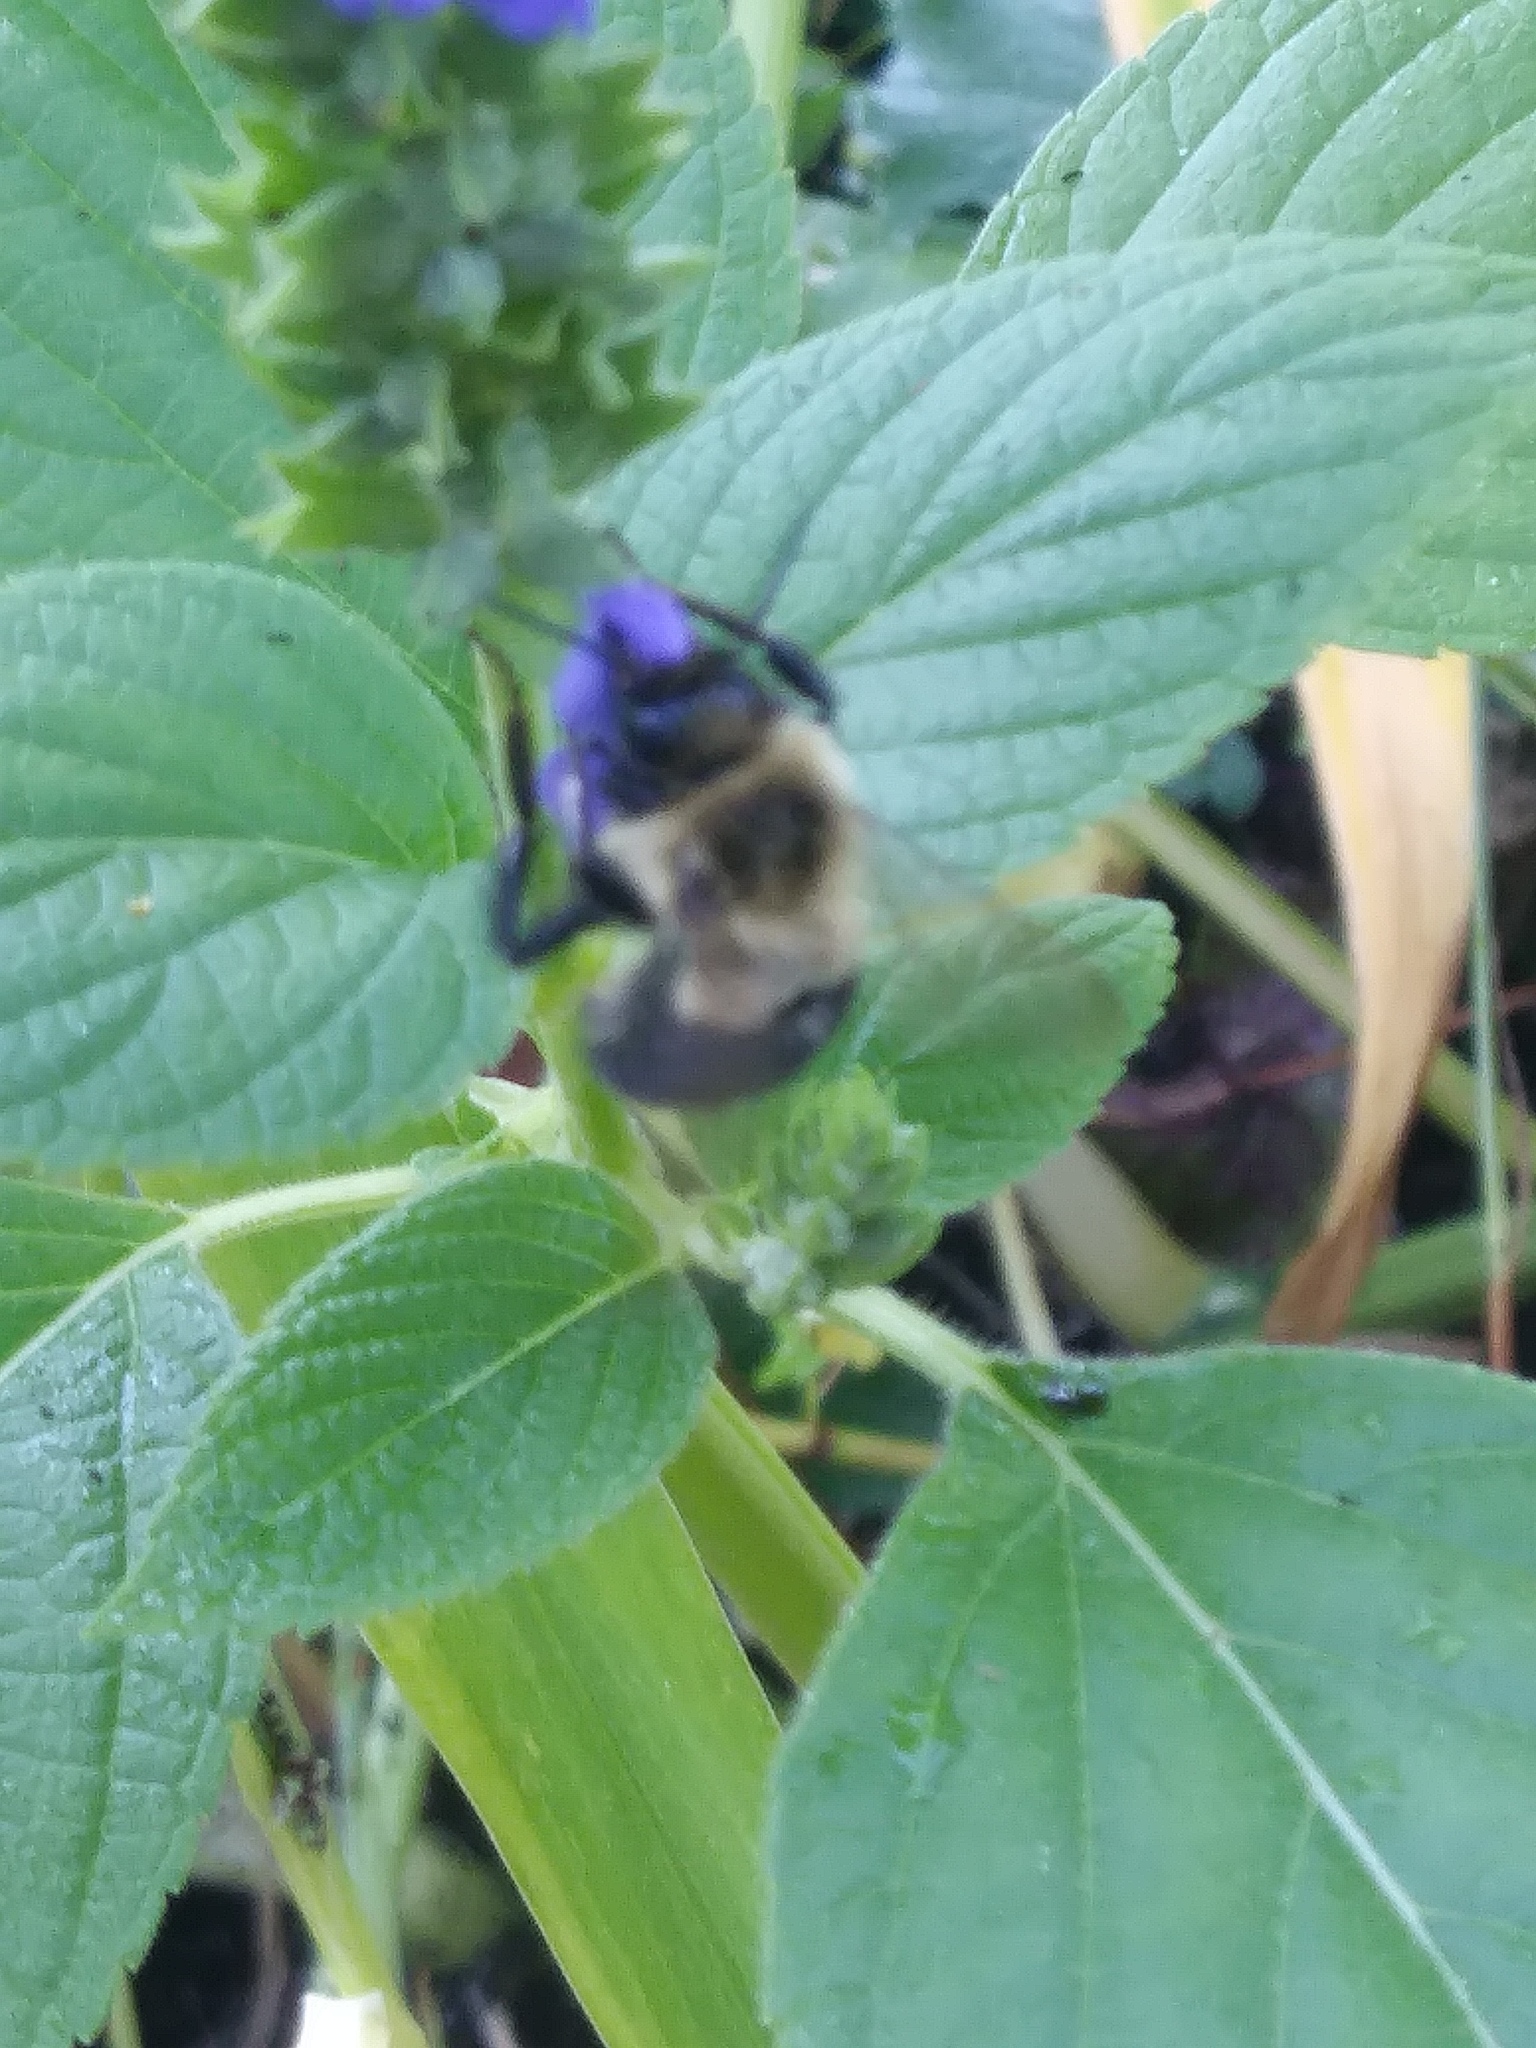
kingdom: Animalia
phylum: Arthropoda
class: Insecta
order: Hymenoptera
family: Apidae
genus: Bombus
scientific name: Bombus impatiens
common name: Common eastern bumble bee
